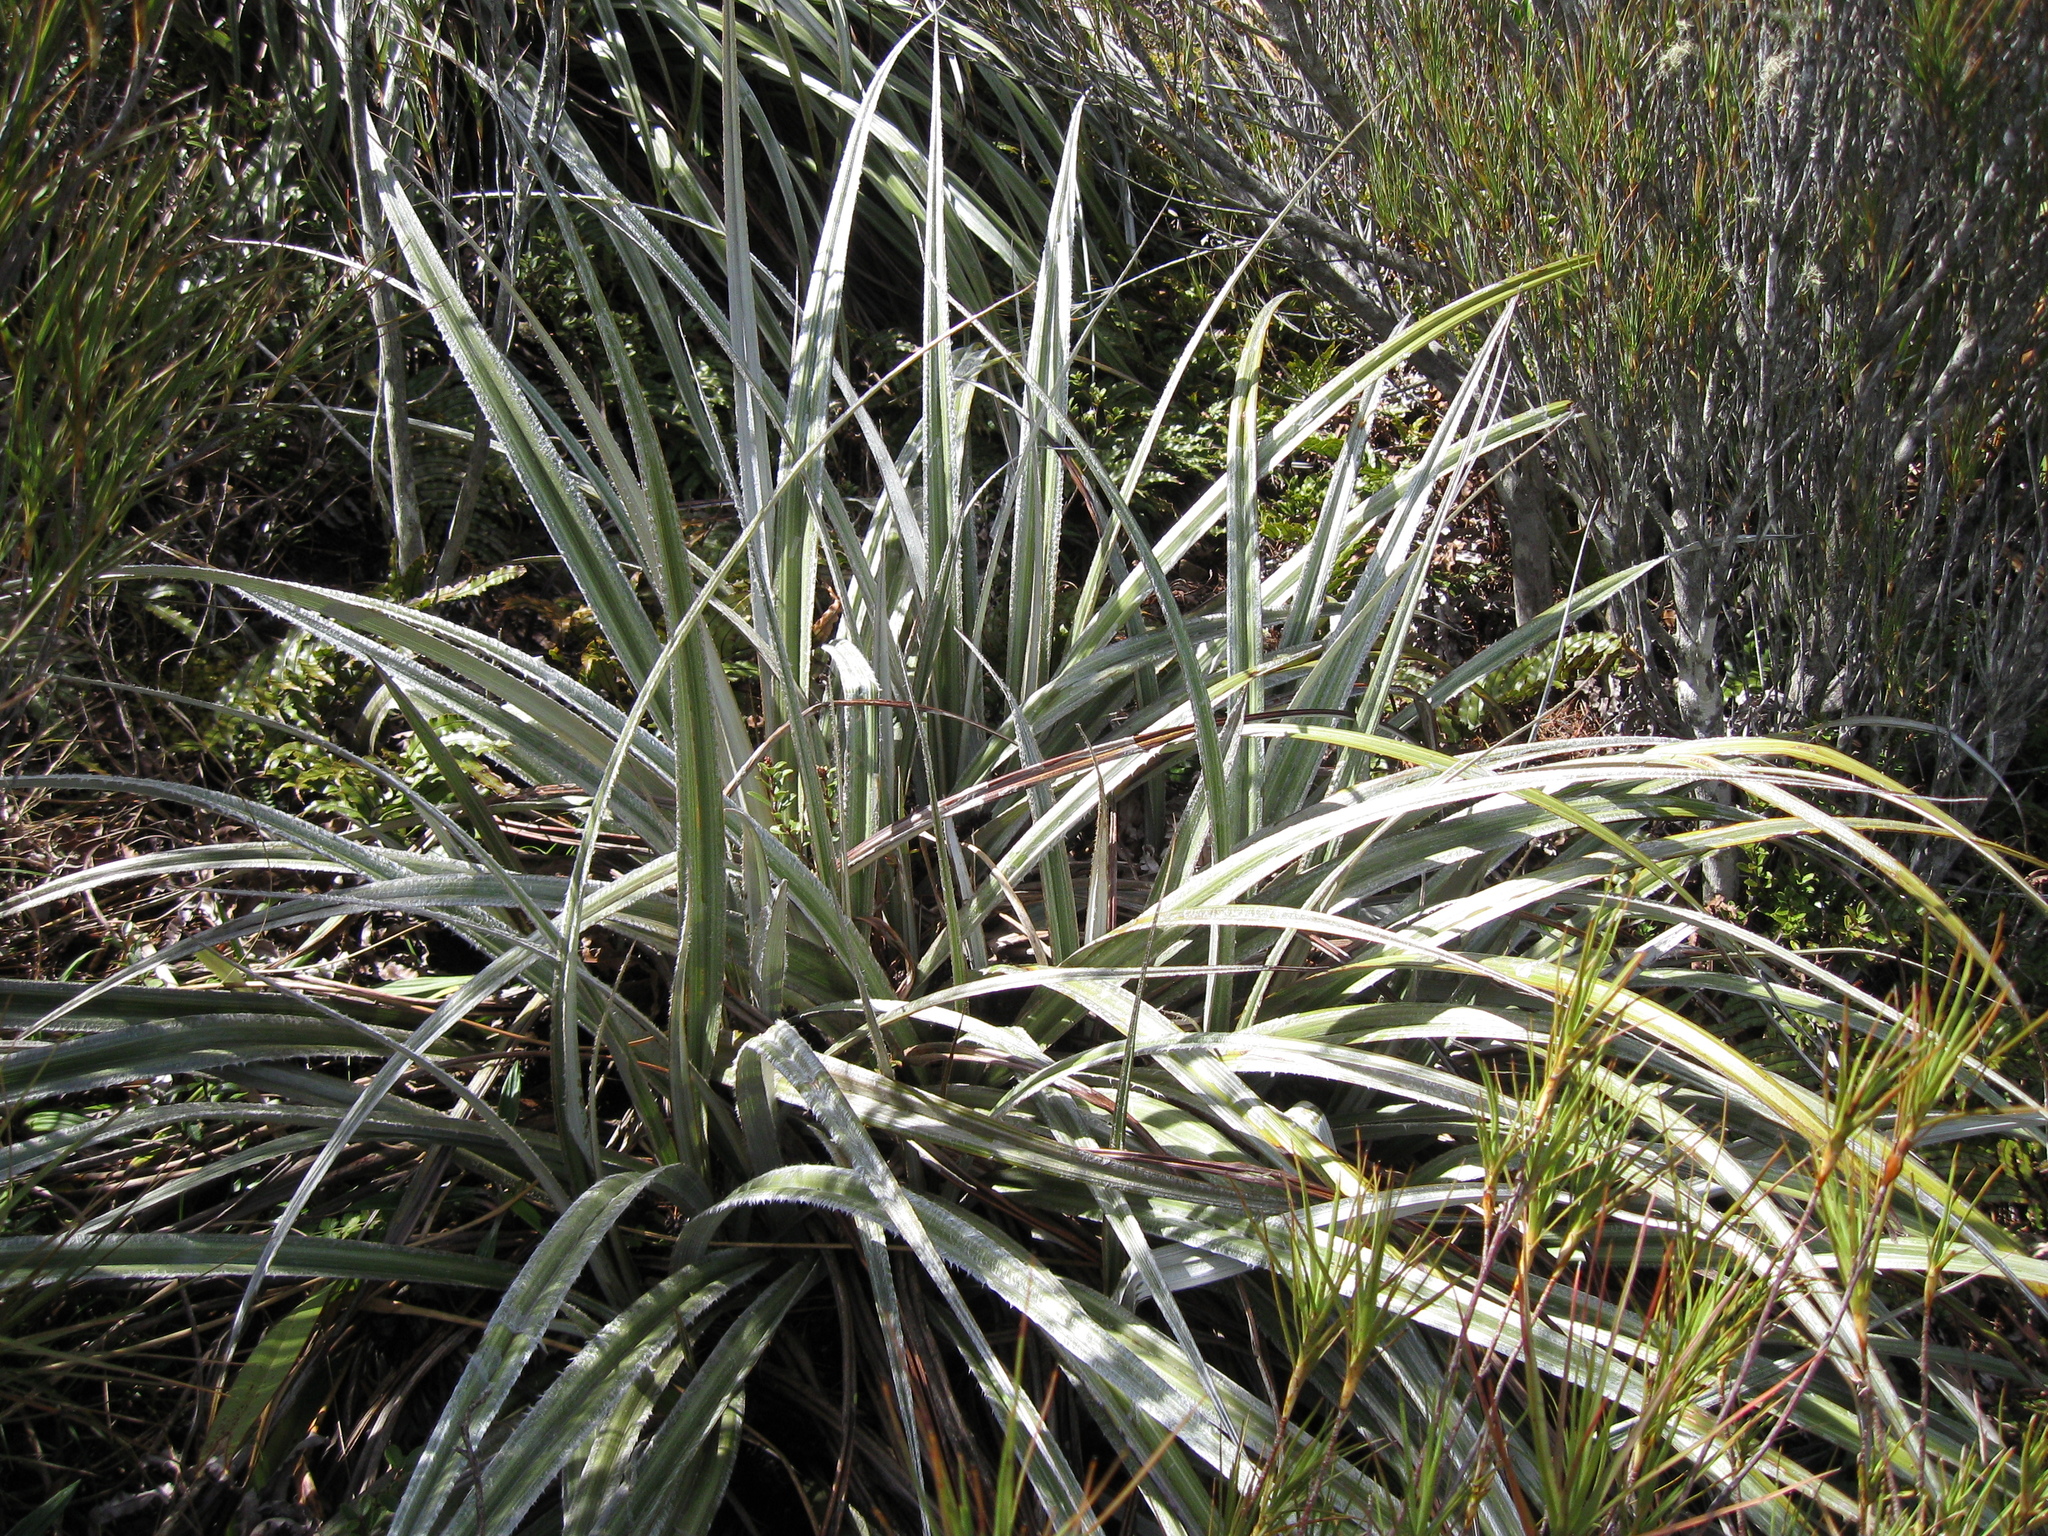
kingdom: Plantae
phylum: Tracheophyta
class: Liliopsida
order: Asparagales
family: Asteliaceae
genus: Astelia
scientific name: Astelia nervosa
